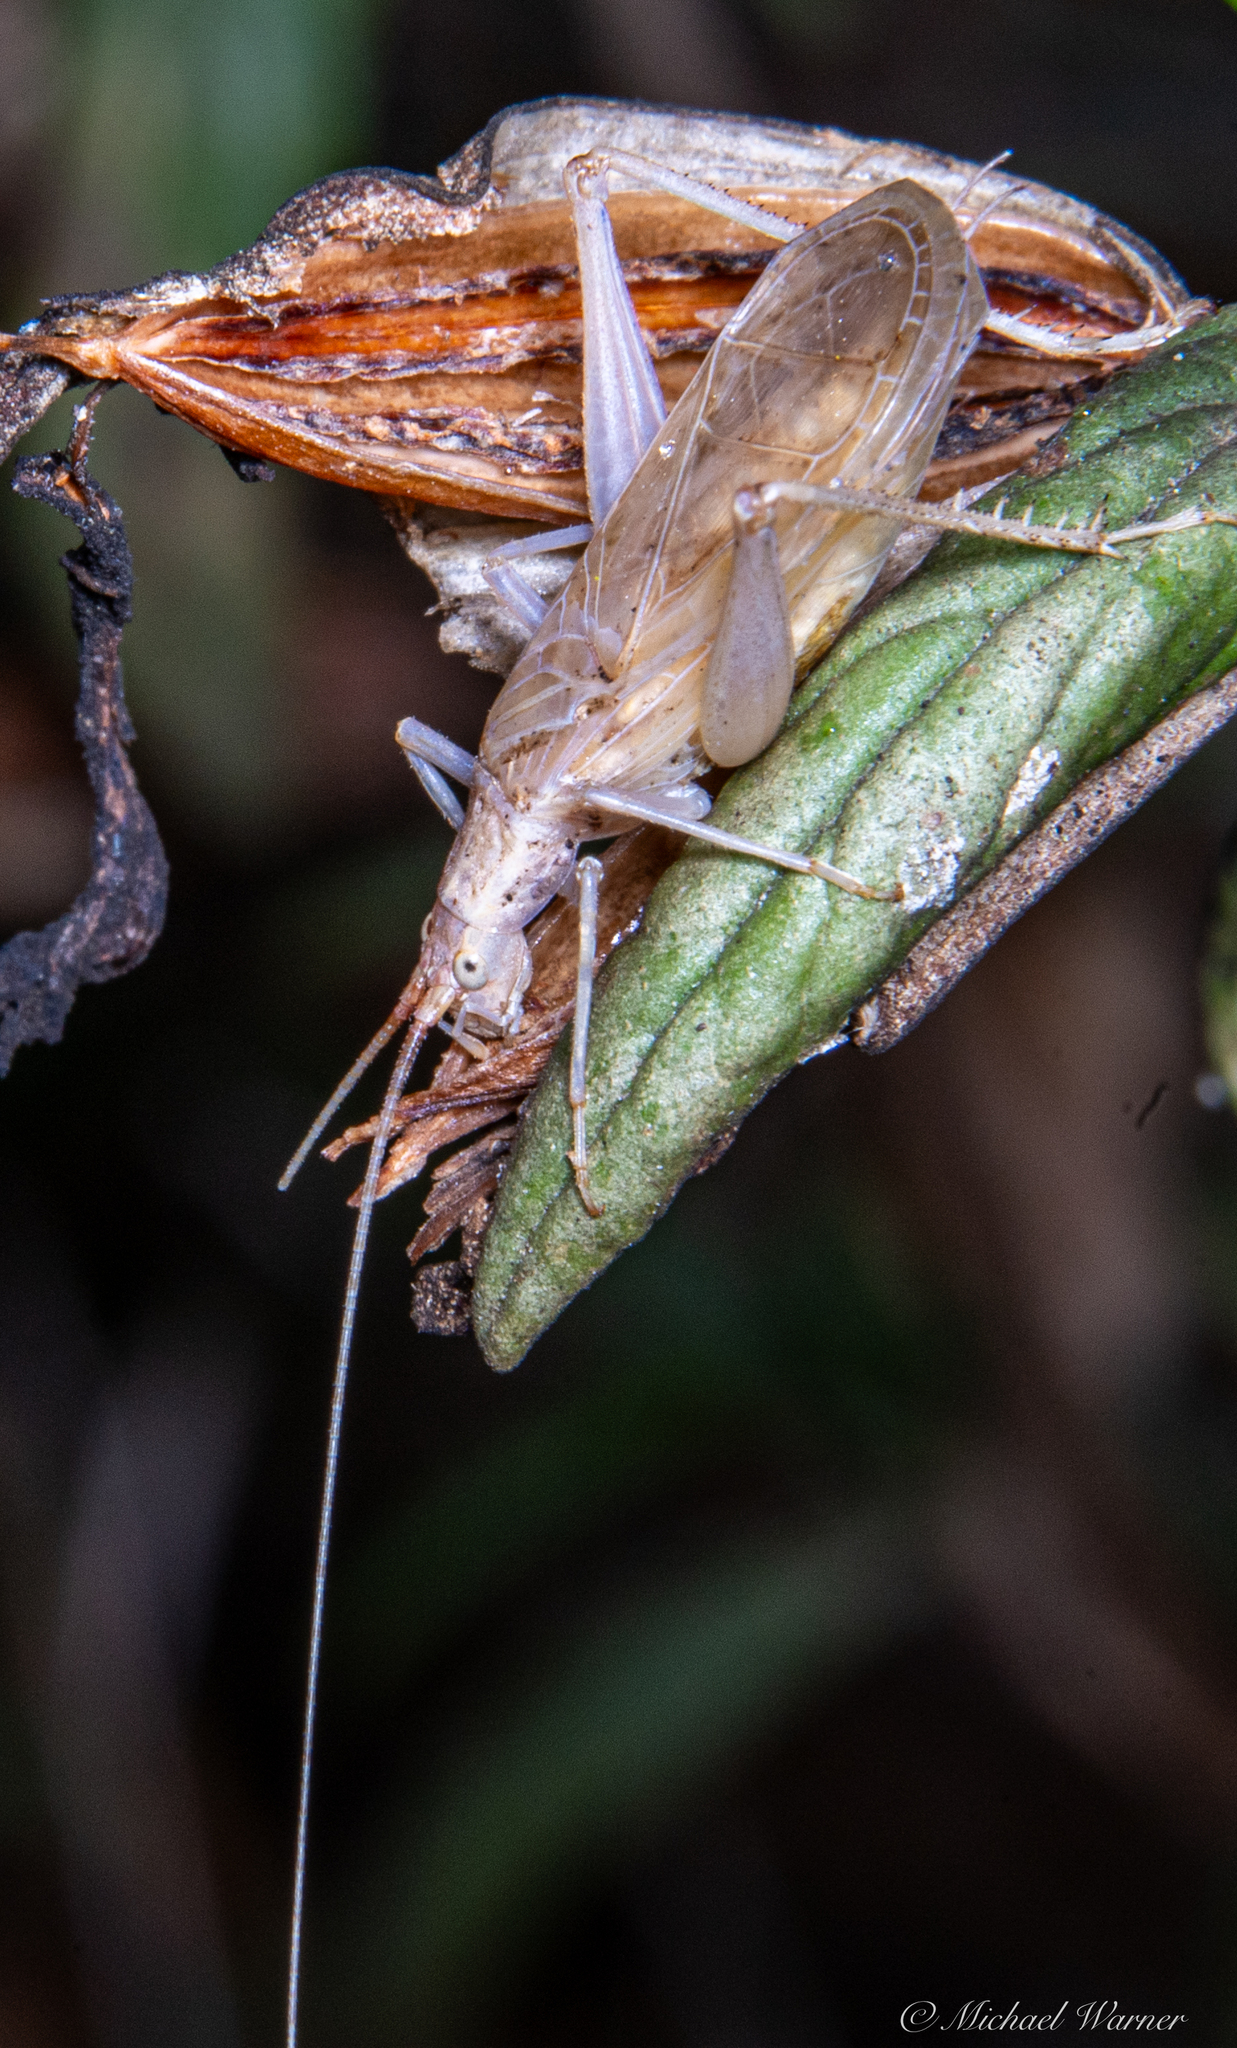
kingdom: Animalia
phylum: Arthropoda
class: Insecta
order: Orthoptera
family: Gryllidae
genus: Oecanthus
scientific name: Oecanthus californicus
